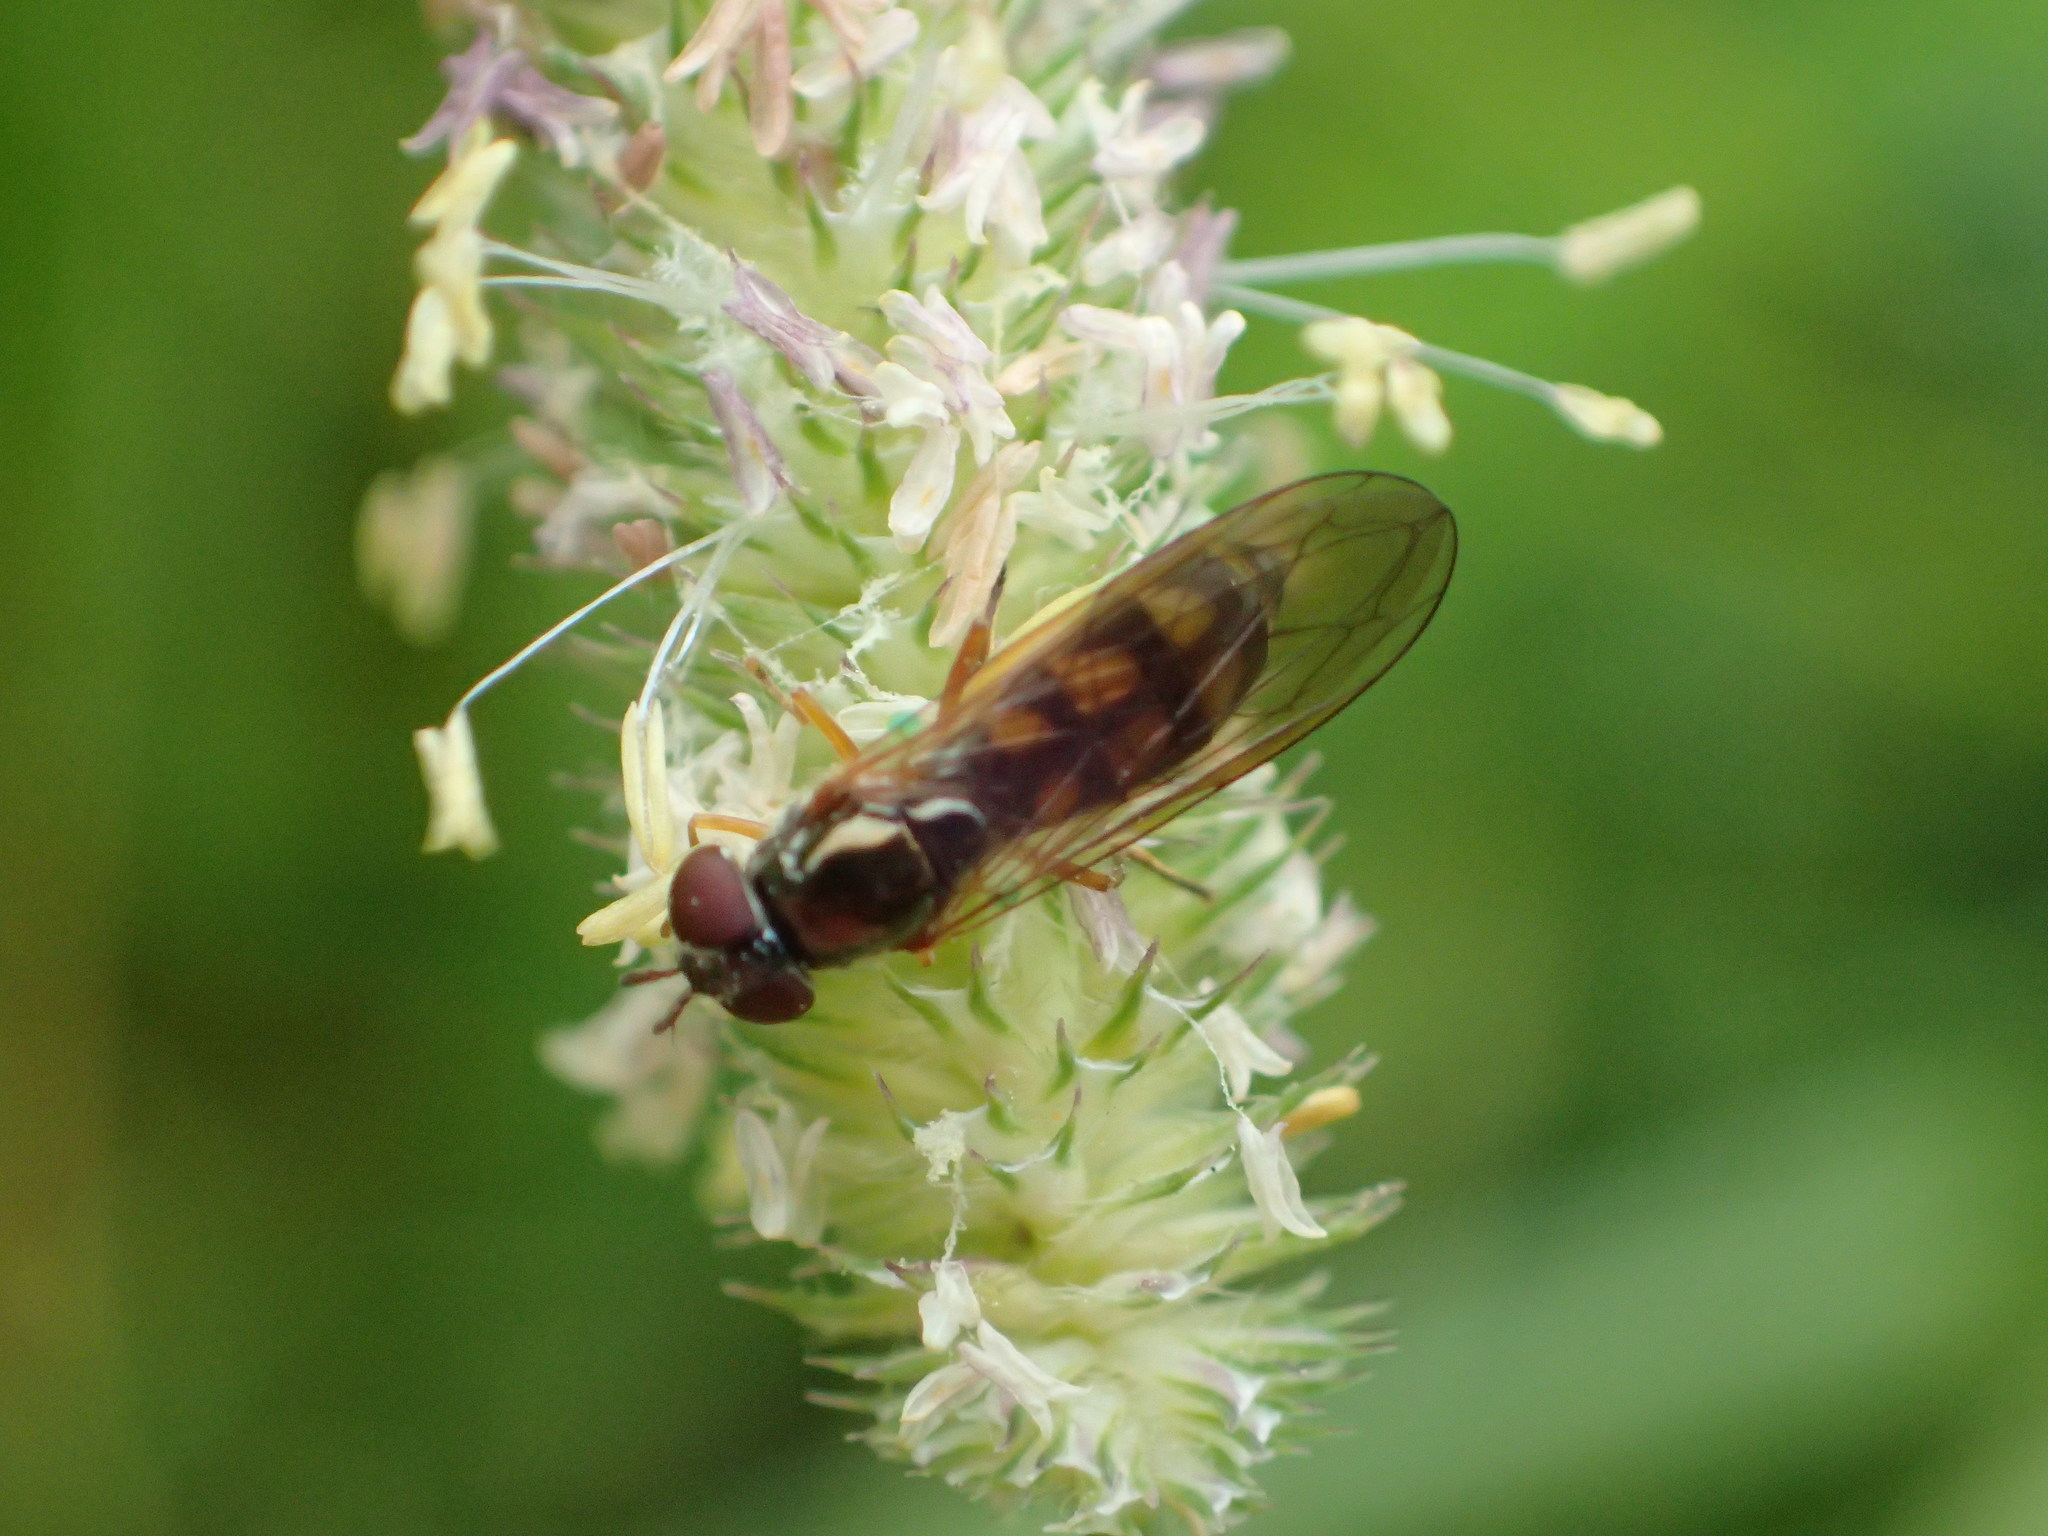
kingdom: Animalia
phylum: Arthropoda
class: Insecta
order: Diptera
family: Syrphidae
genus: Melanostoma
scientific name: Melanostoma mellina
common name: Hover fly
